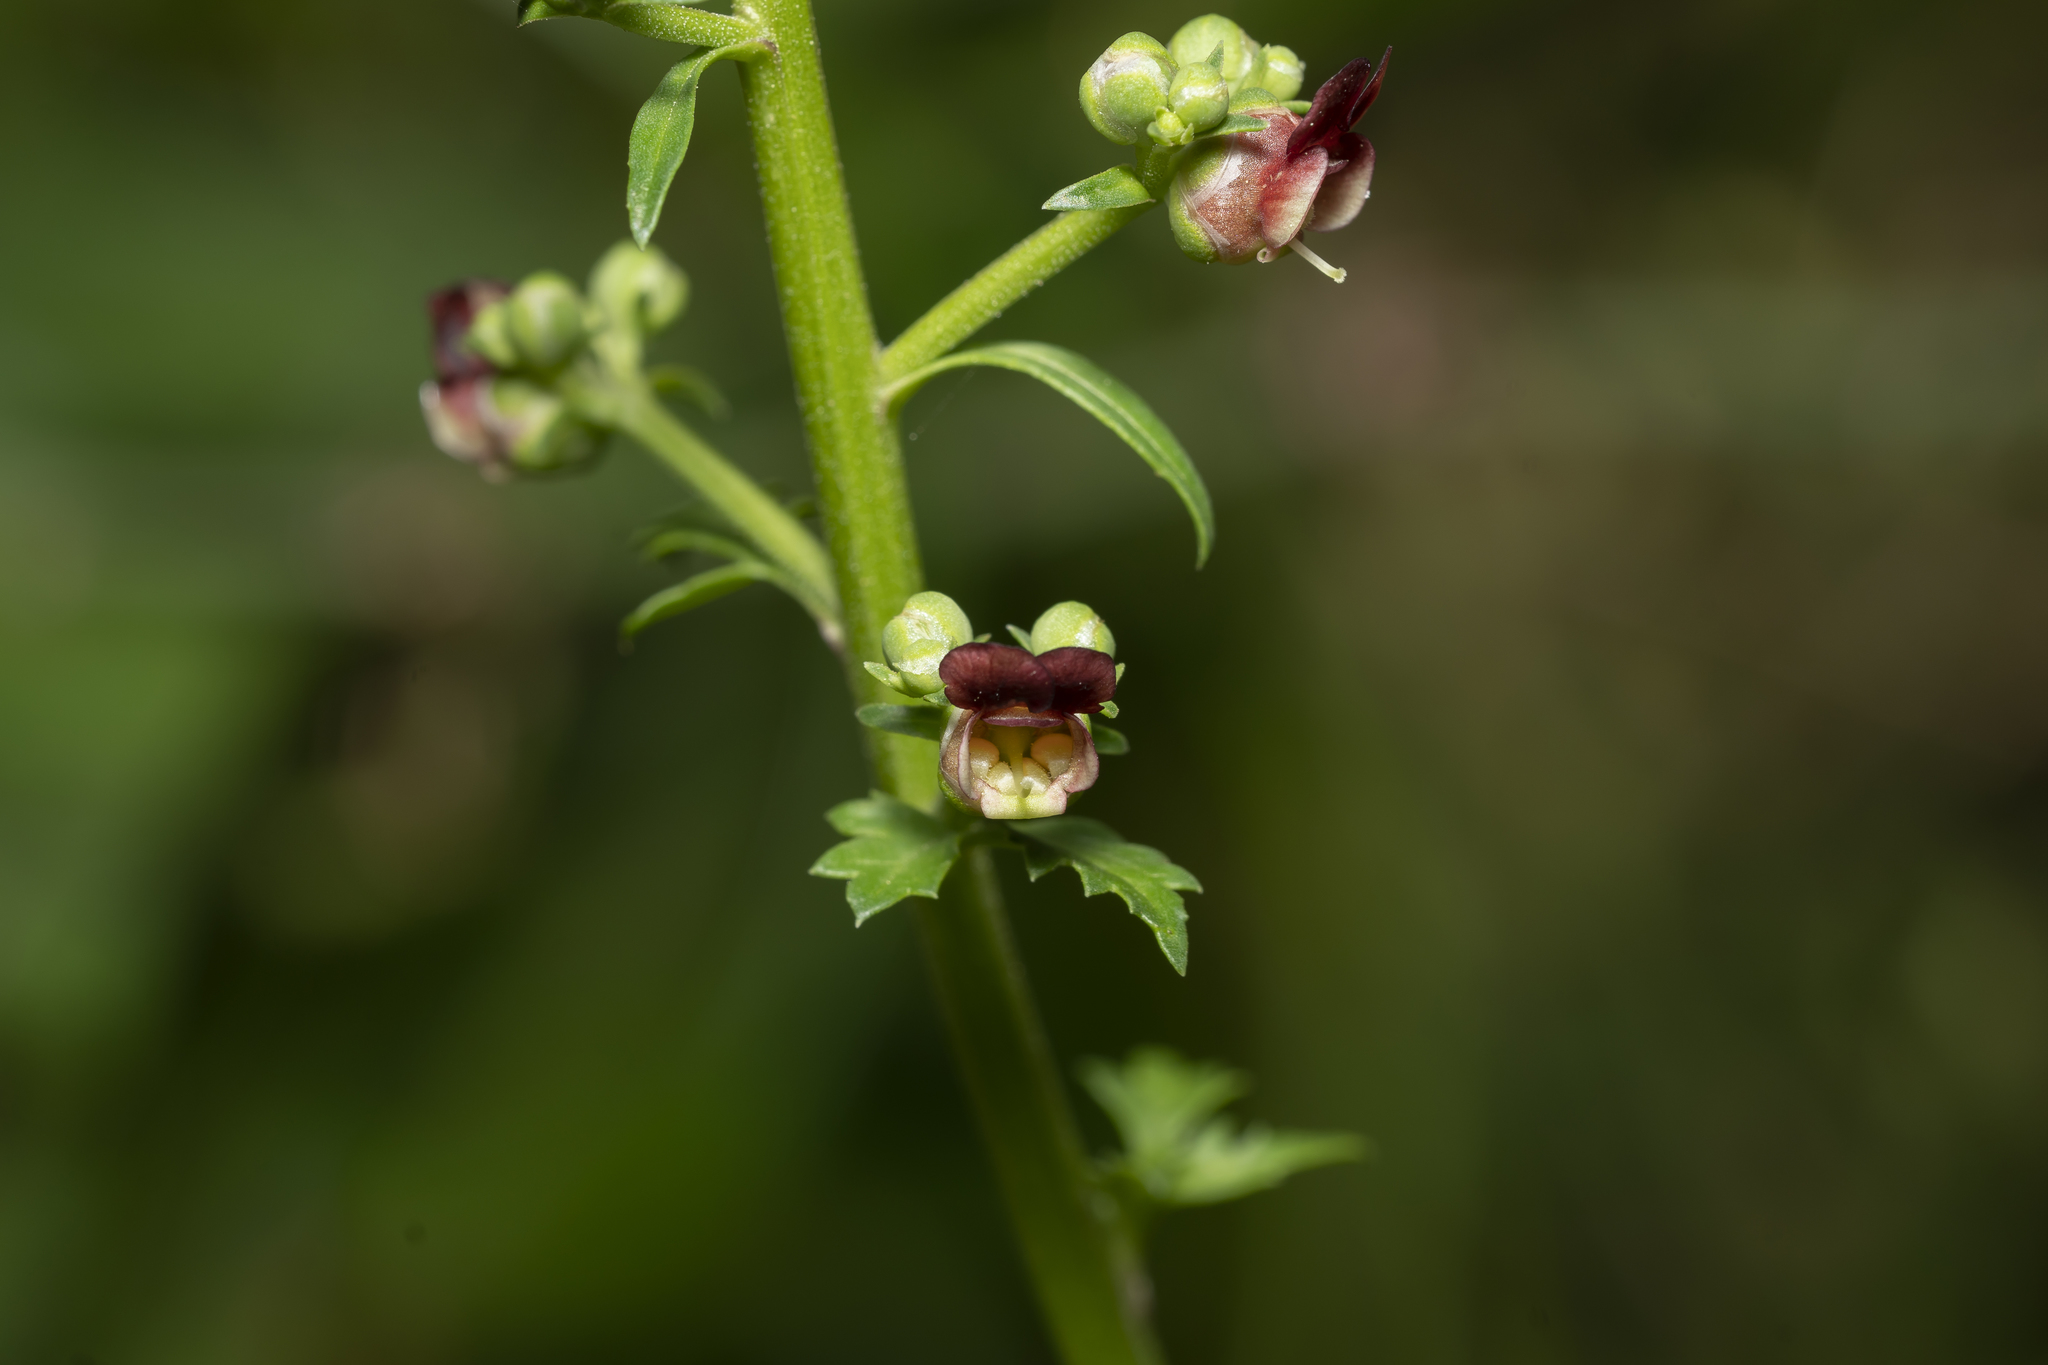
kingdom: Plantae
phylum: Tracheophyta
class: Magnoliopsida
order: Lamiales
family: Scrophulariaceae
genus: Scrophularia
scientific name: Scrophularia lucida
